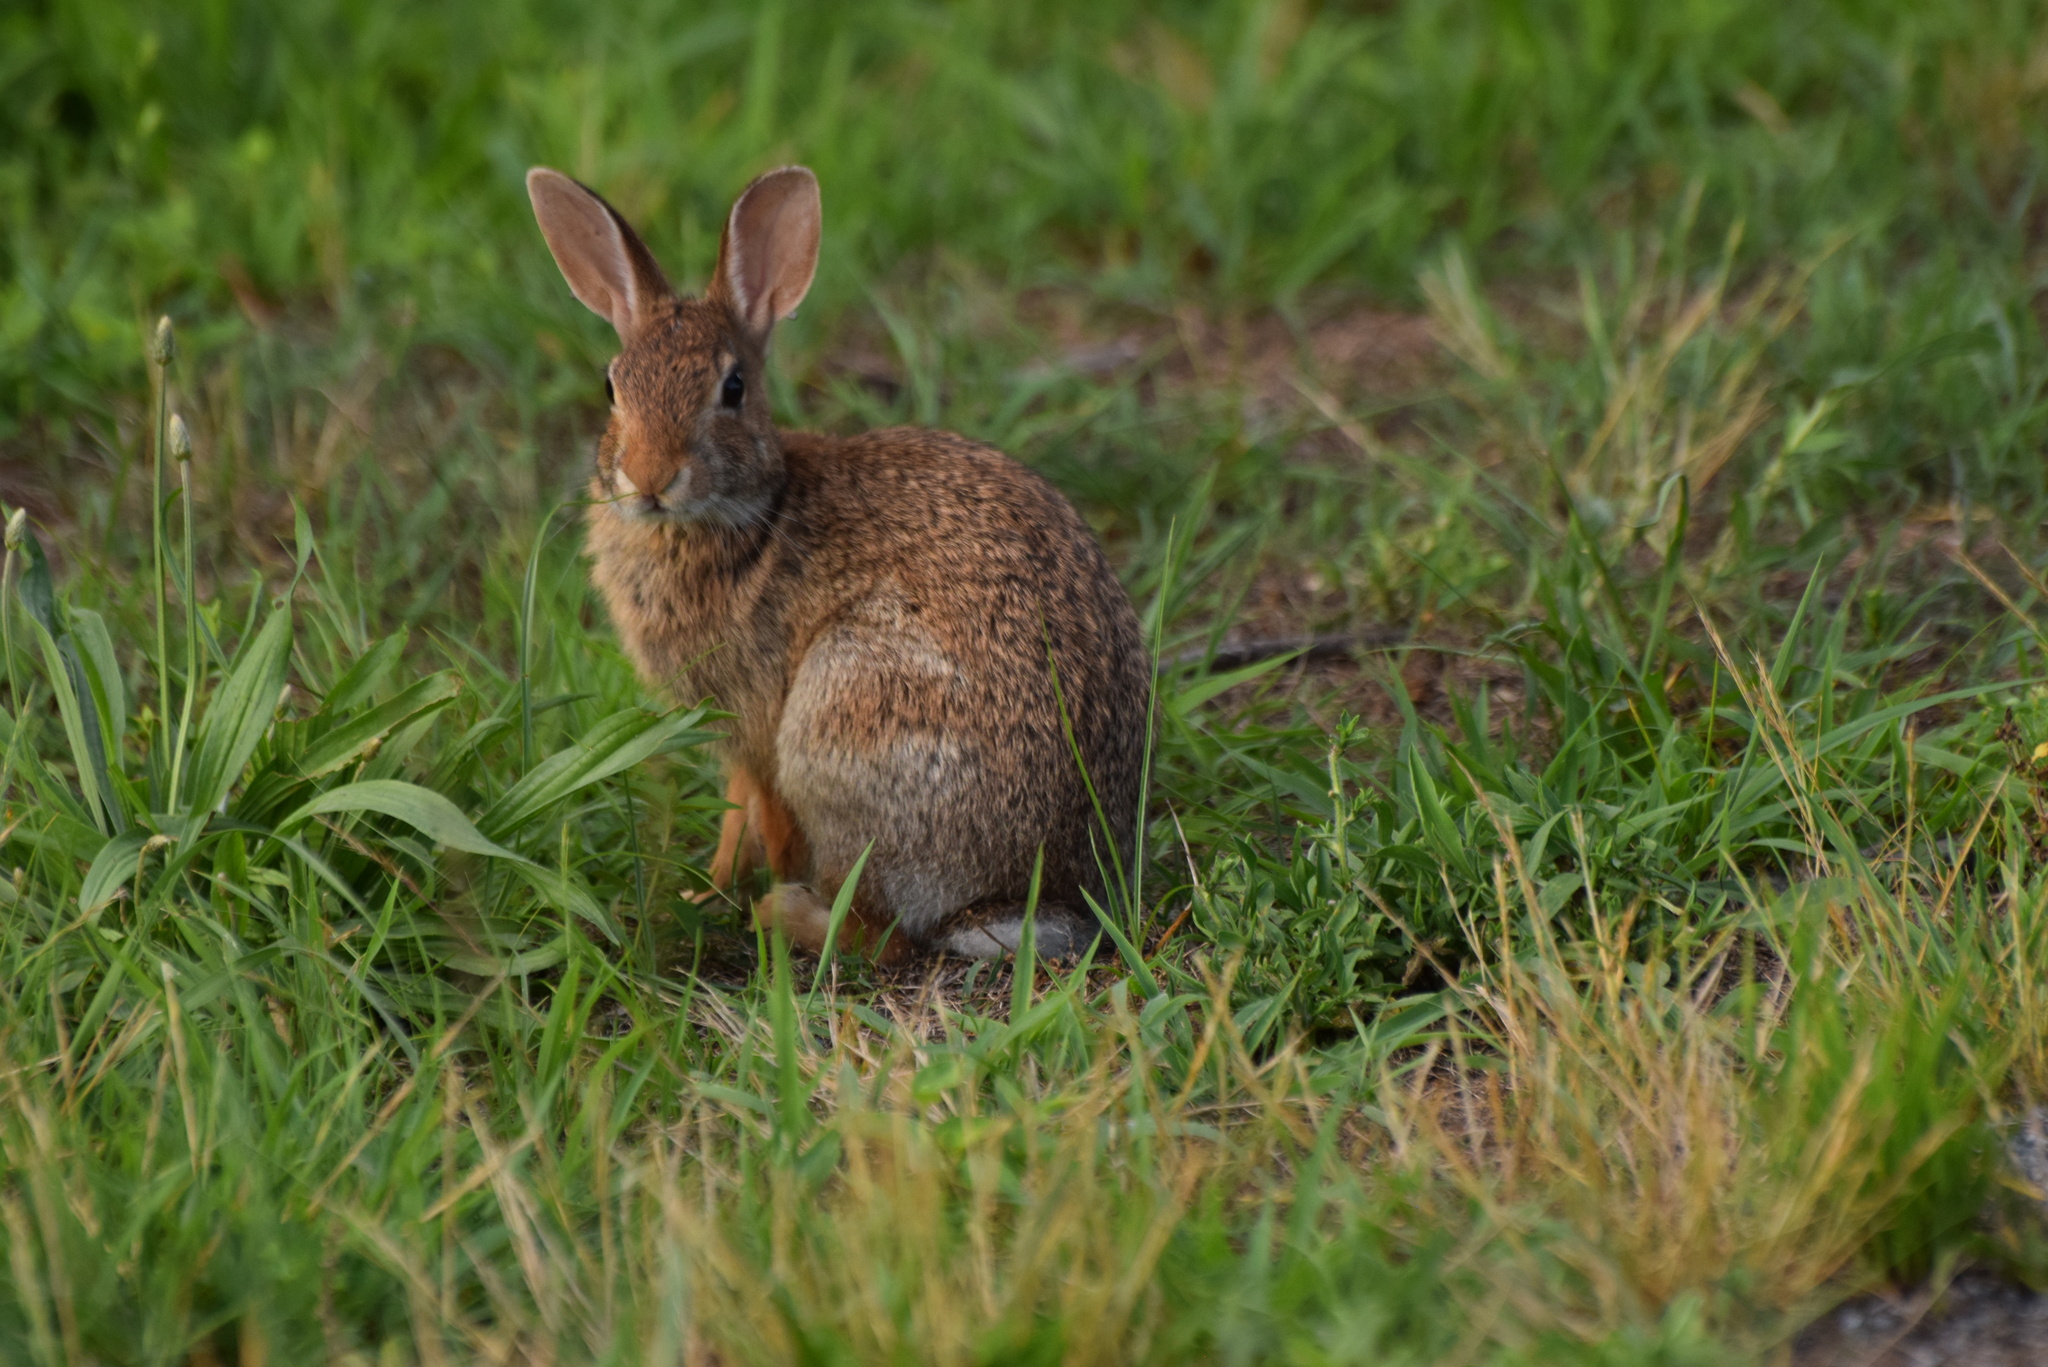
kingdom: Animalia
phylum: Chordata
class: Mammalia
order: Lagomorpha
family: Leporidae
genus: Sylvilagus
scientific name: Sylvilagus floridanus
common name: Eastern cottontail
